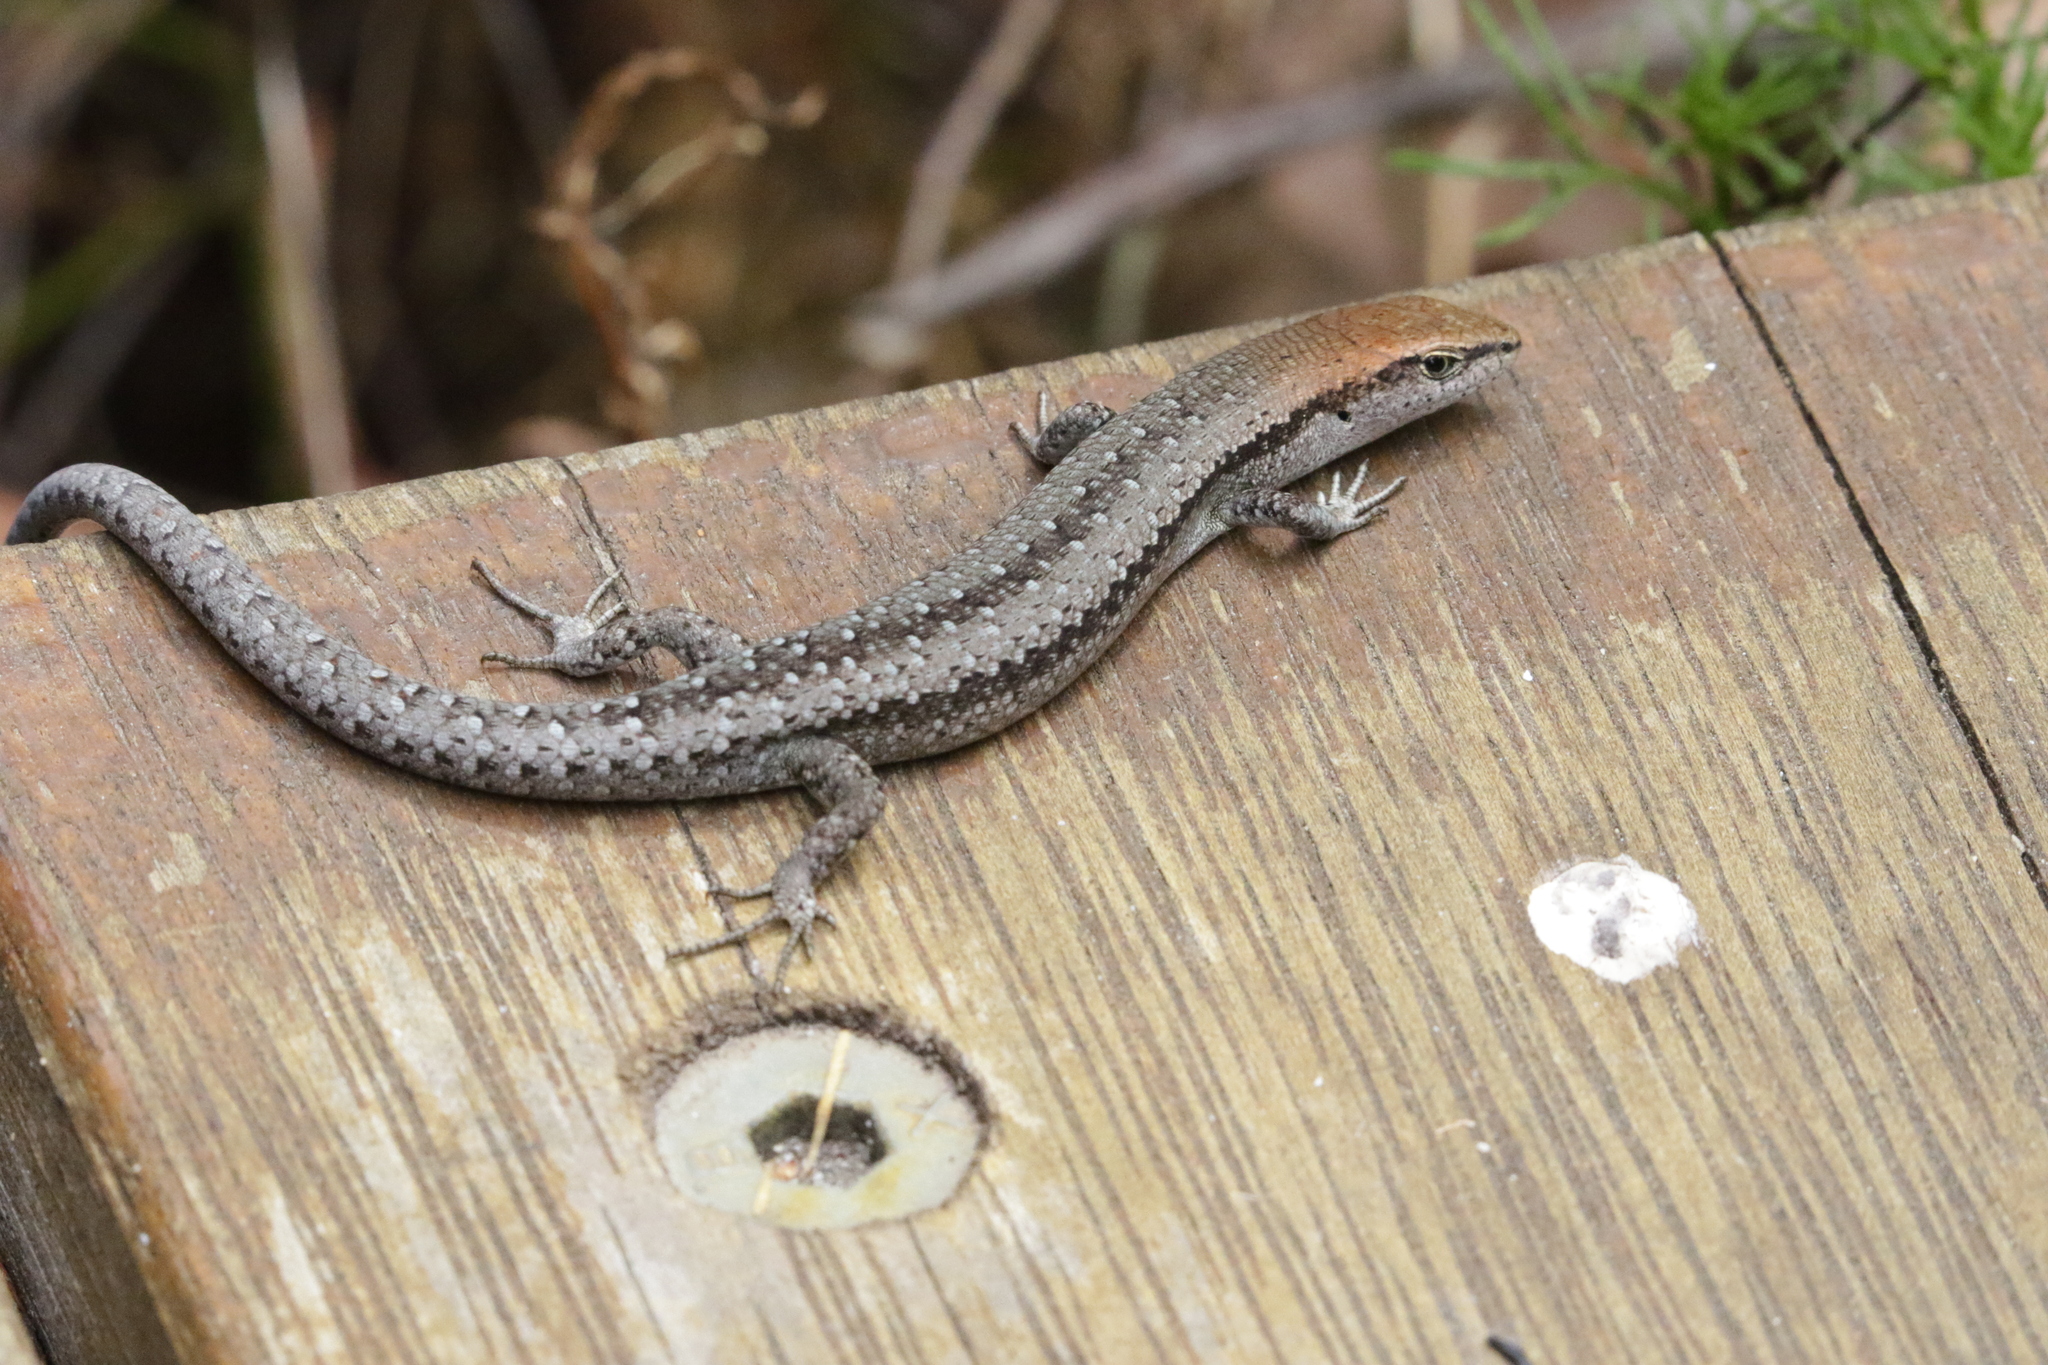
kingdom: Animalia
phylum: Chordata
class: Squamata
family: Scincidae
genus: Lampropholis
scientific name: Lampropholis guichenoti
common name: Garden skink
